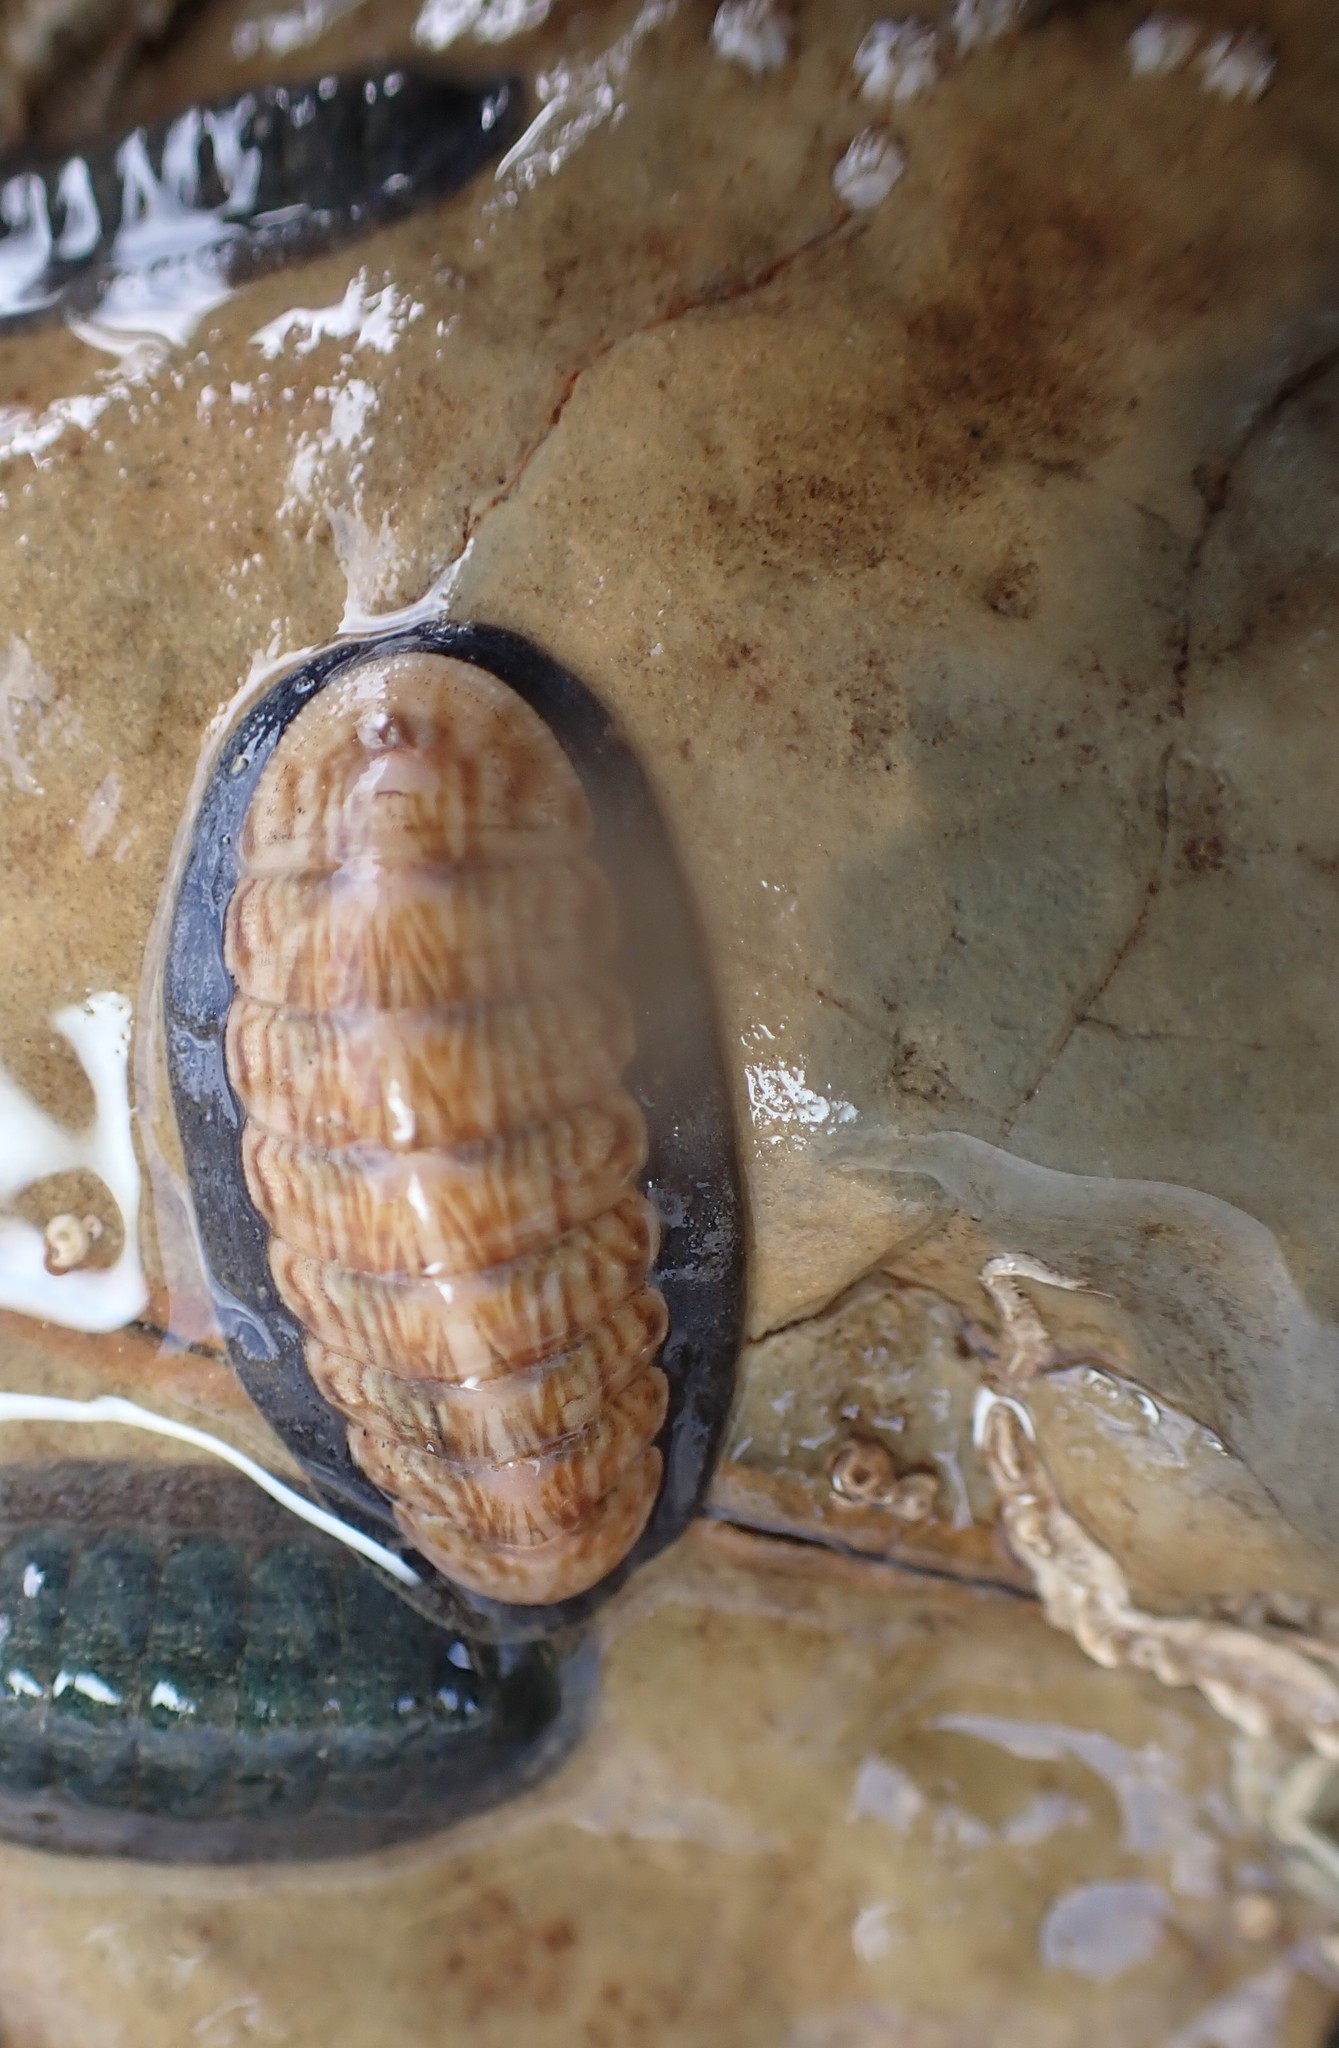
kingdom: Animalia
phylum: Mollusca
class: Polyplacophora
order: Chitonida
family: Ischnochitonidae
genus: Ischnochiton
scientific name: Ischnochiton maorianus
